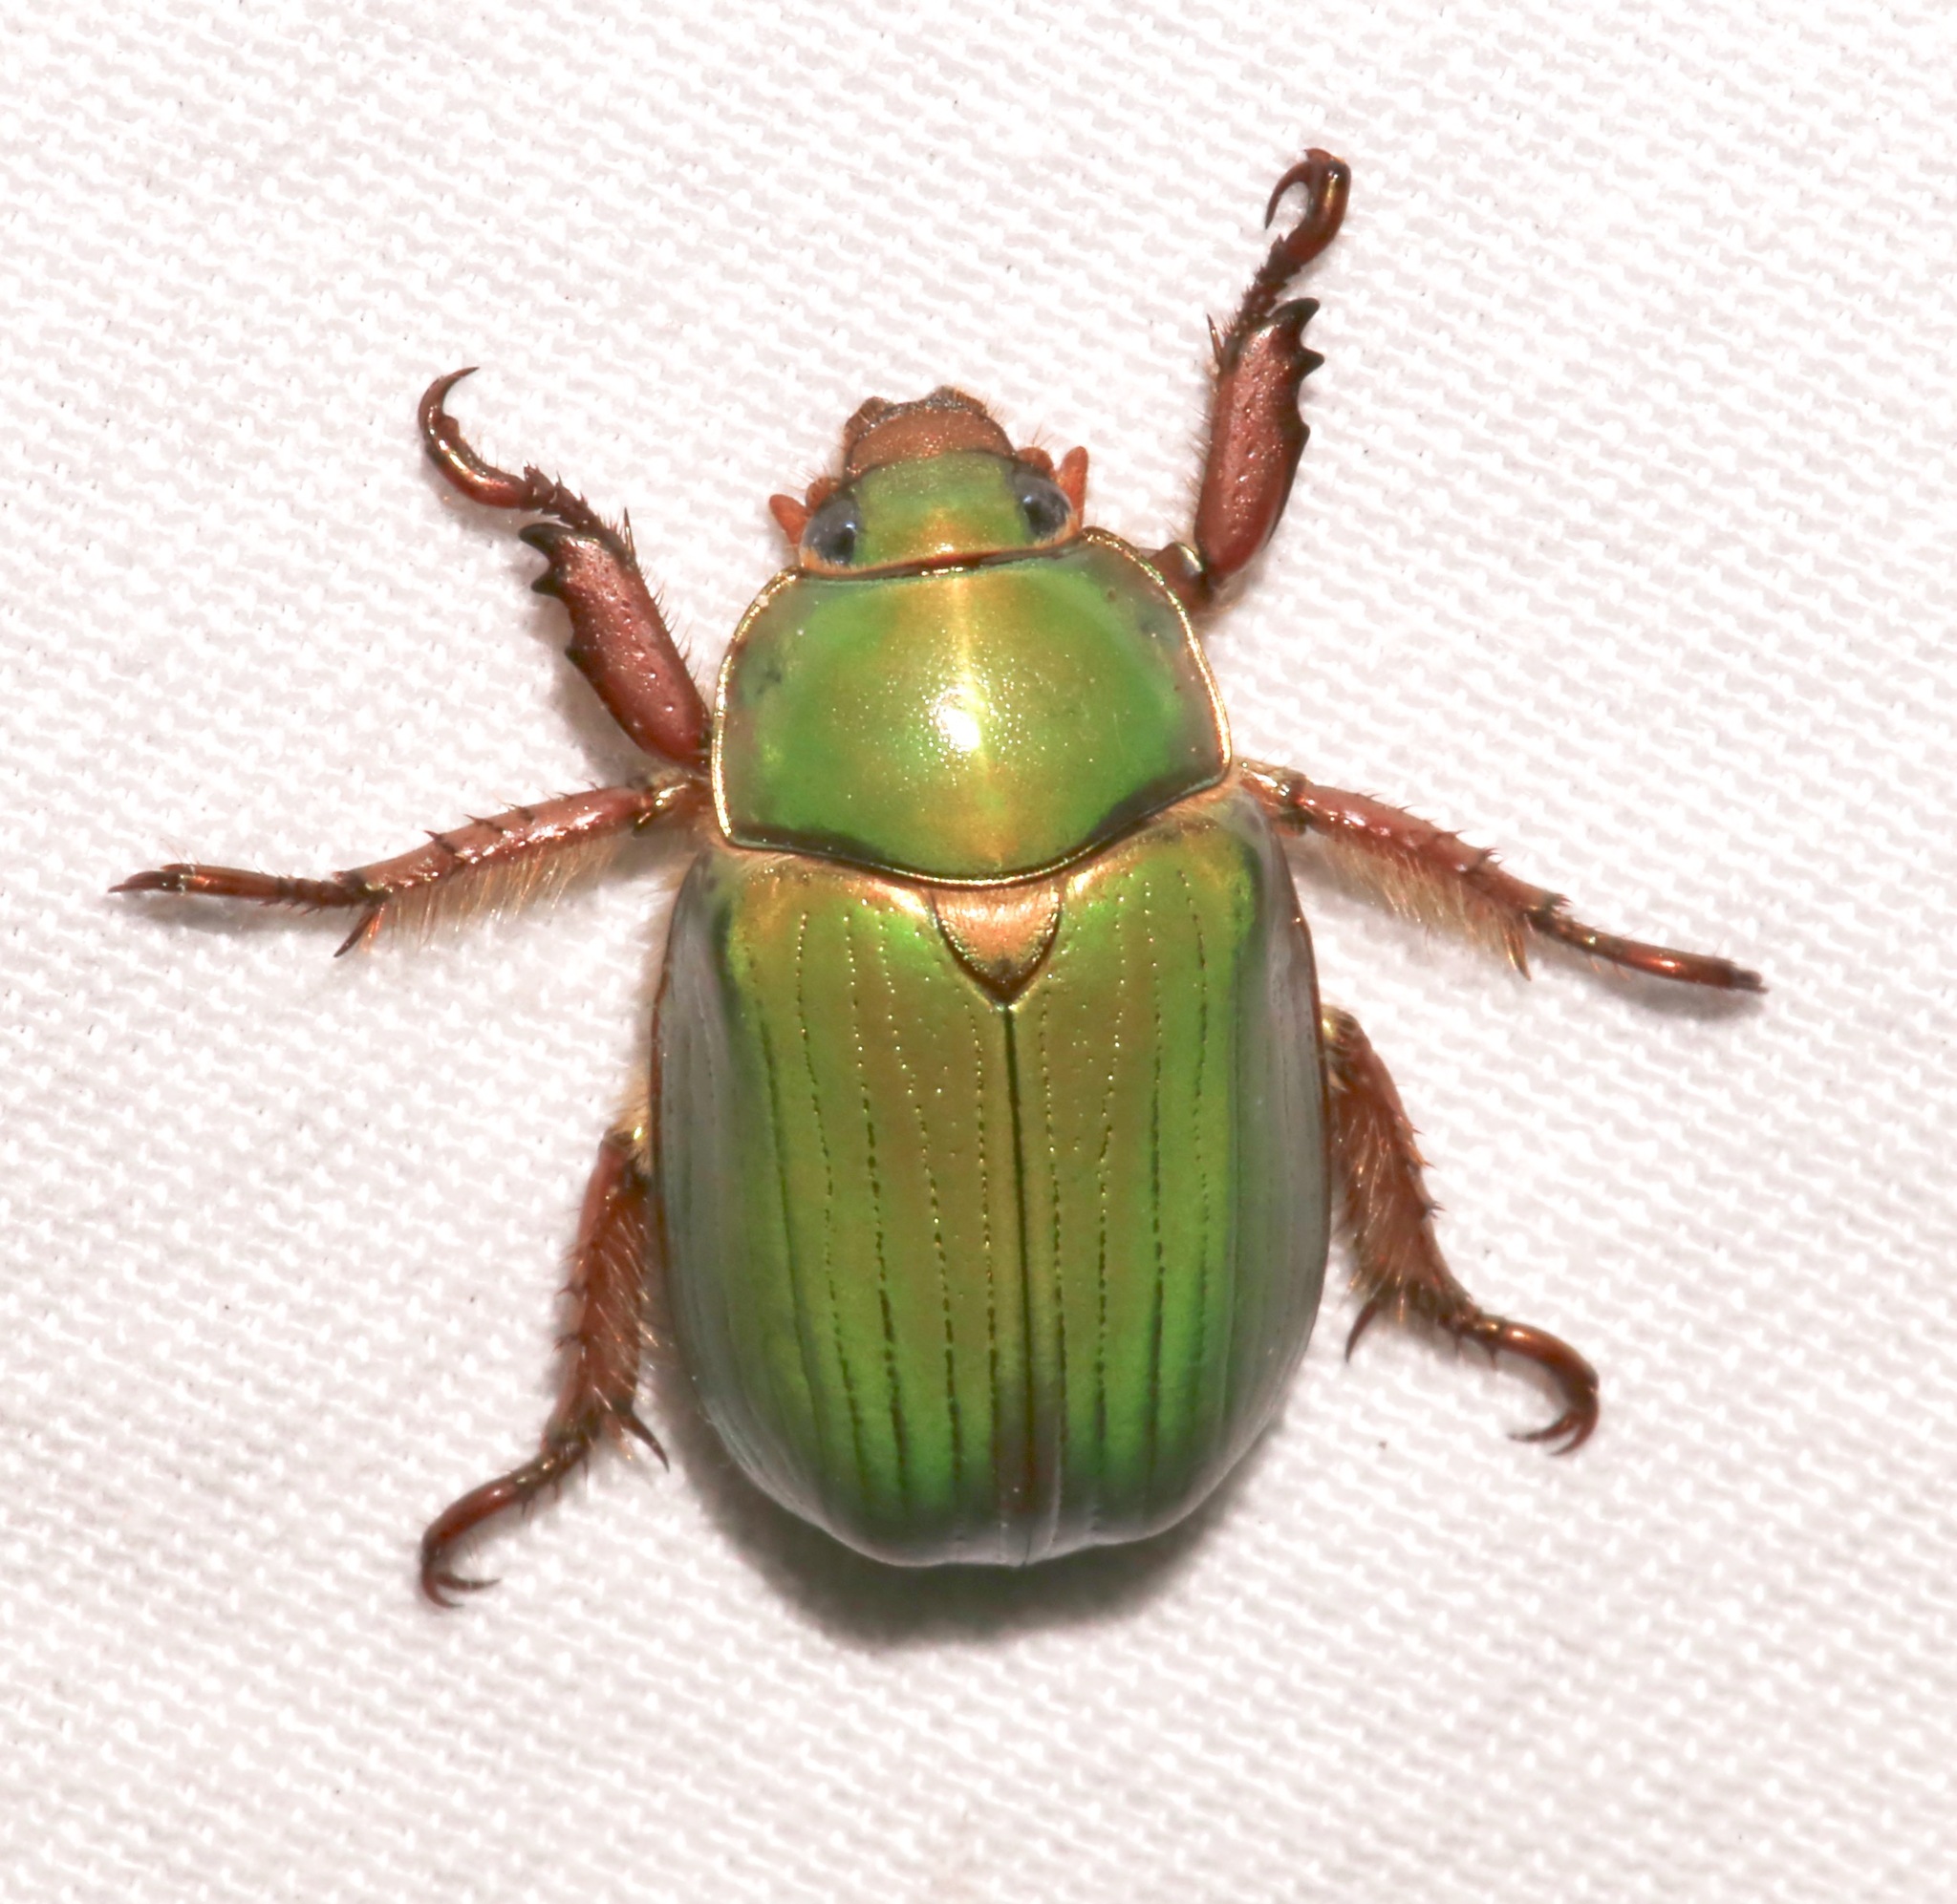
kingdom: Animalia
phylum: Arthropoda
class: Insecta
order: Coleoptera
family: Scarabaeidae
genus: Chrysina
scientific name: Chrysina lecontei
